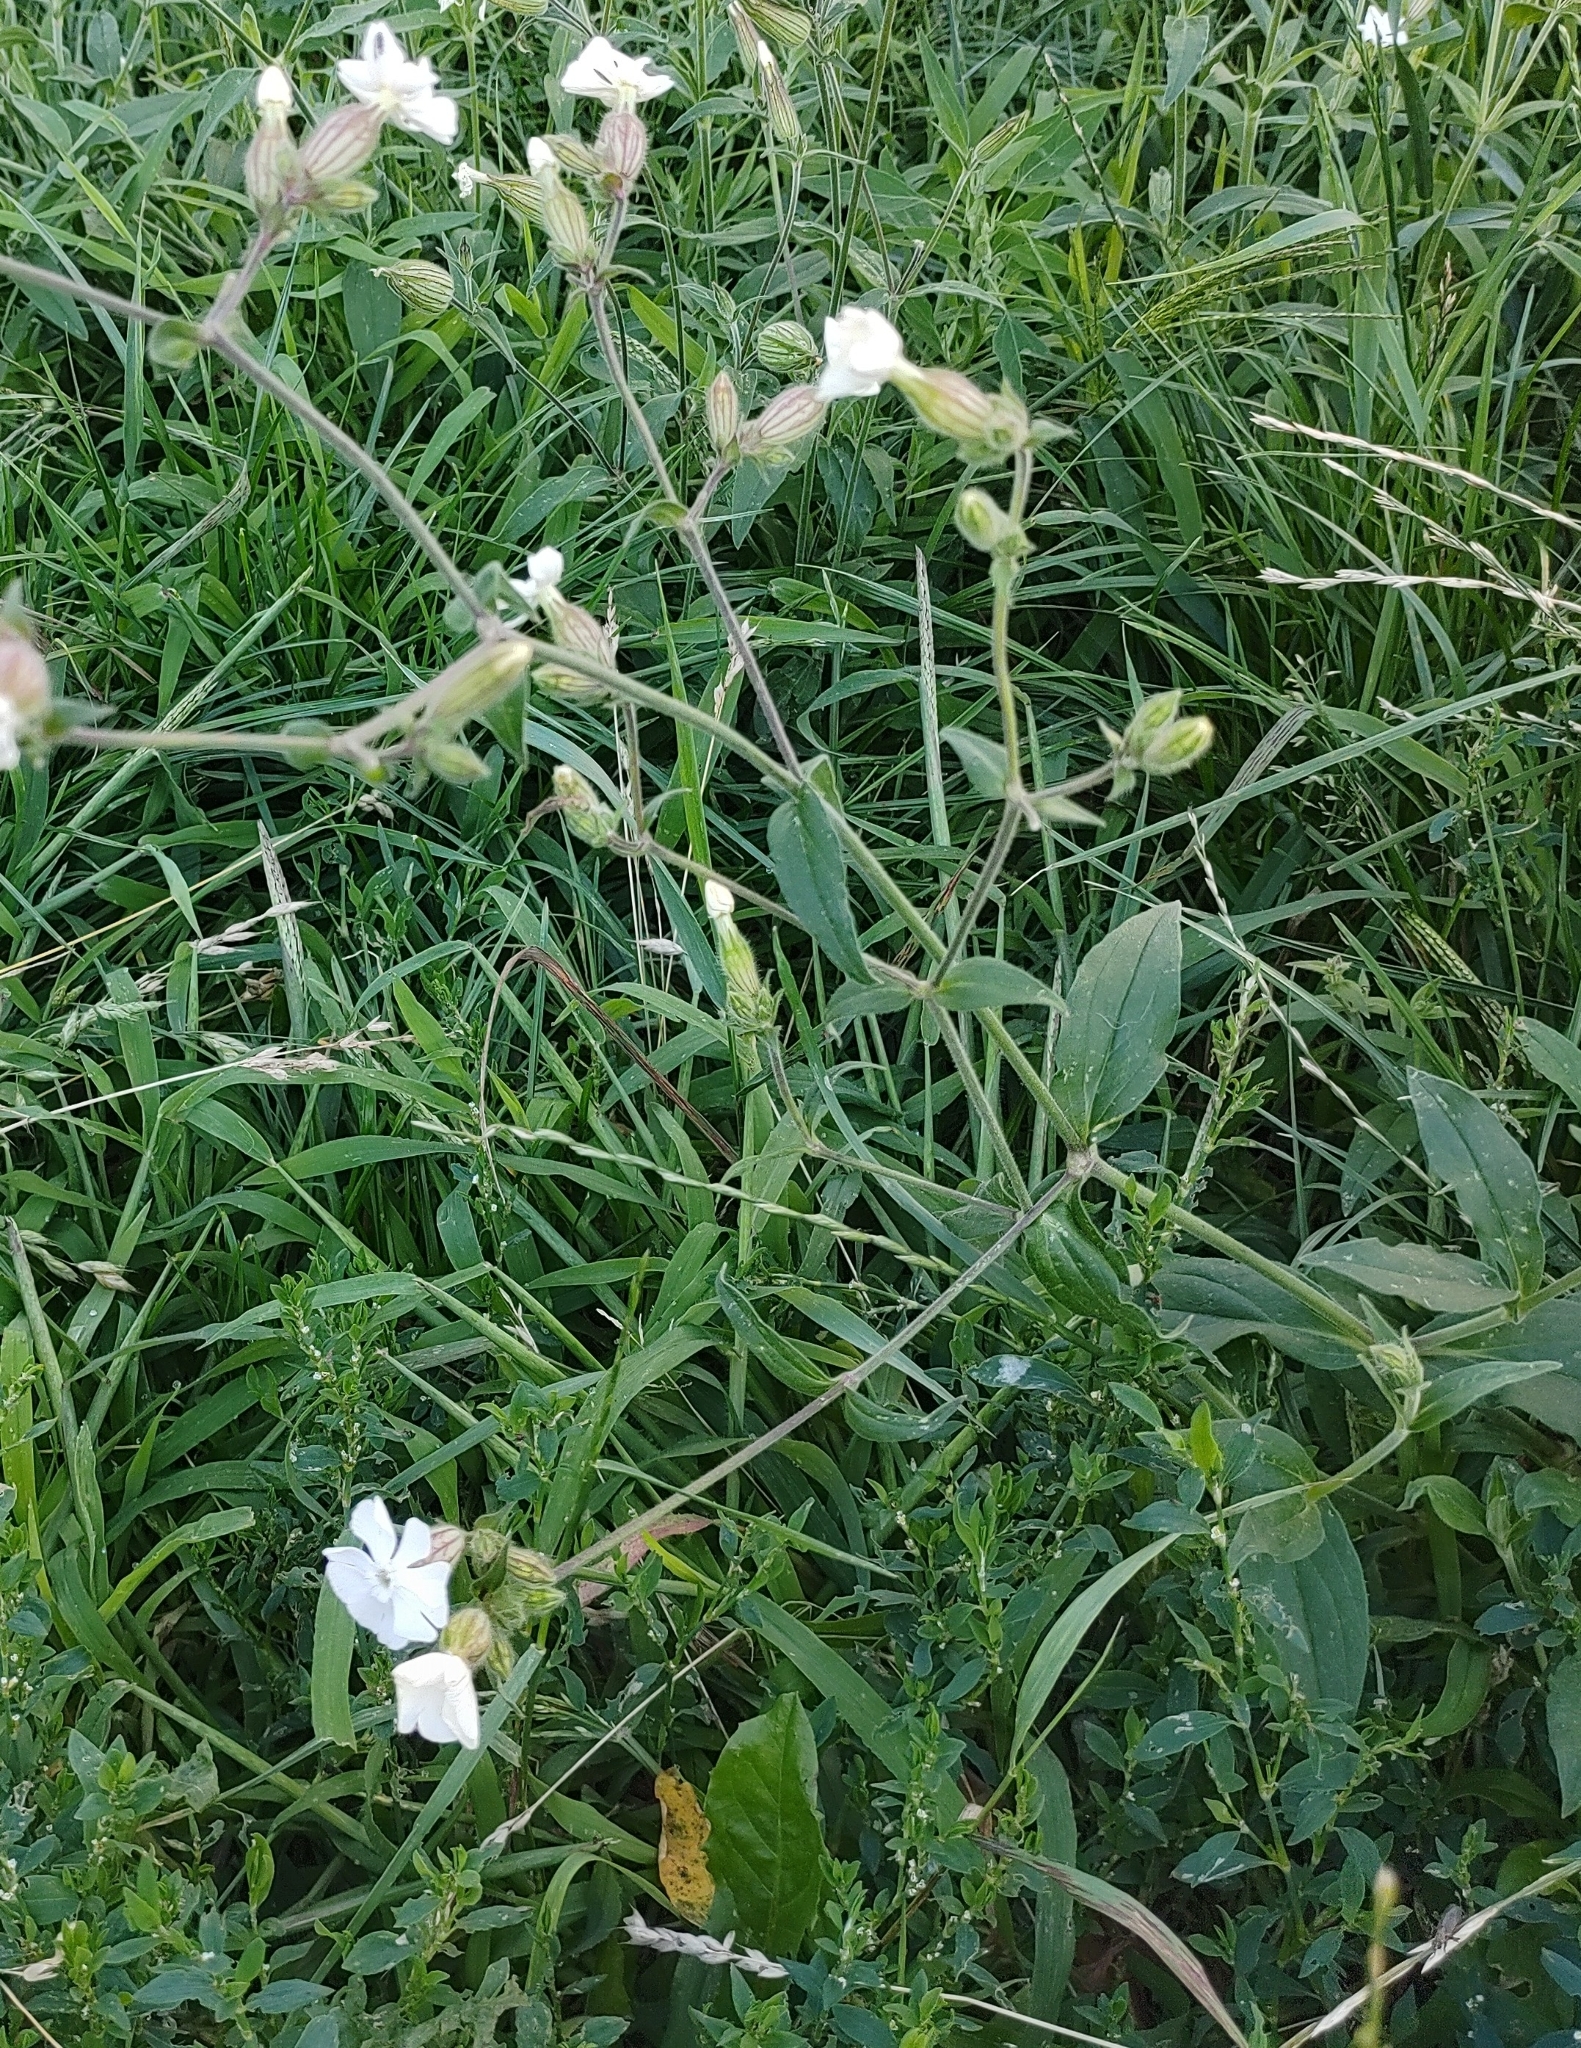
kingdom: Plantae
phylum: Tracheophyta
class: Magnoliopsida
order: Caryophyllales
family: Caryophyllaceae
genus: Silene
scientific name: Silene latifolia
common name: White campion
